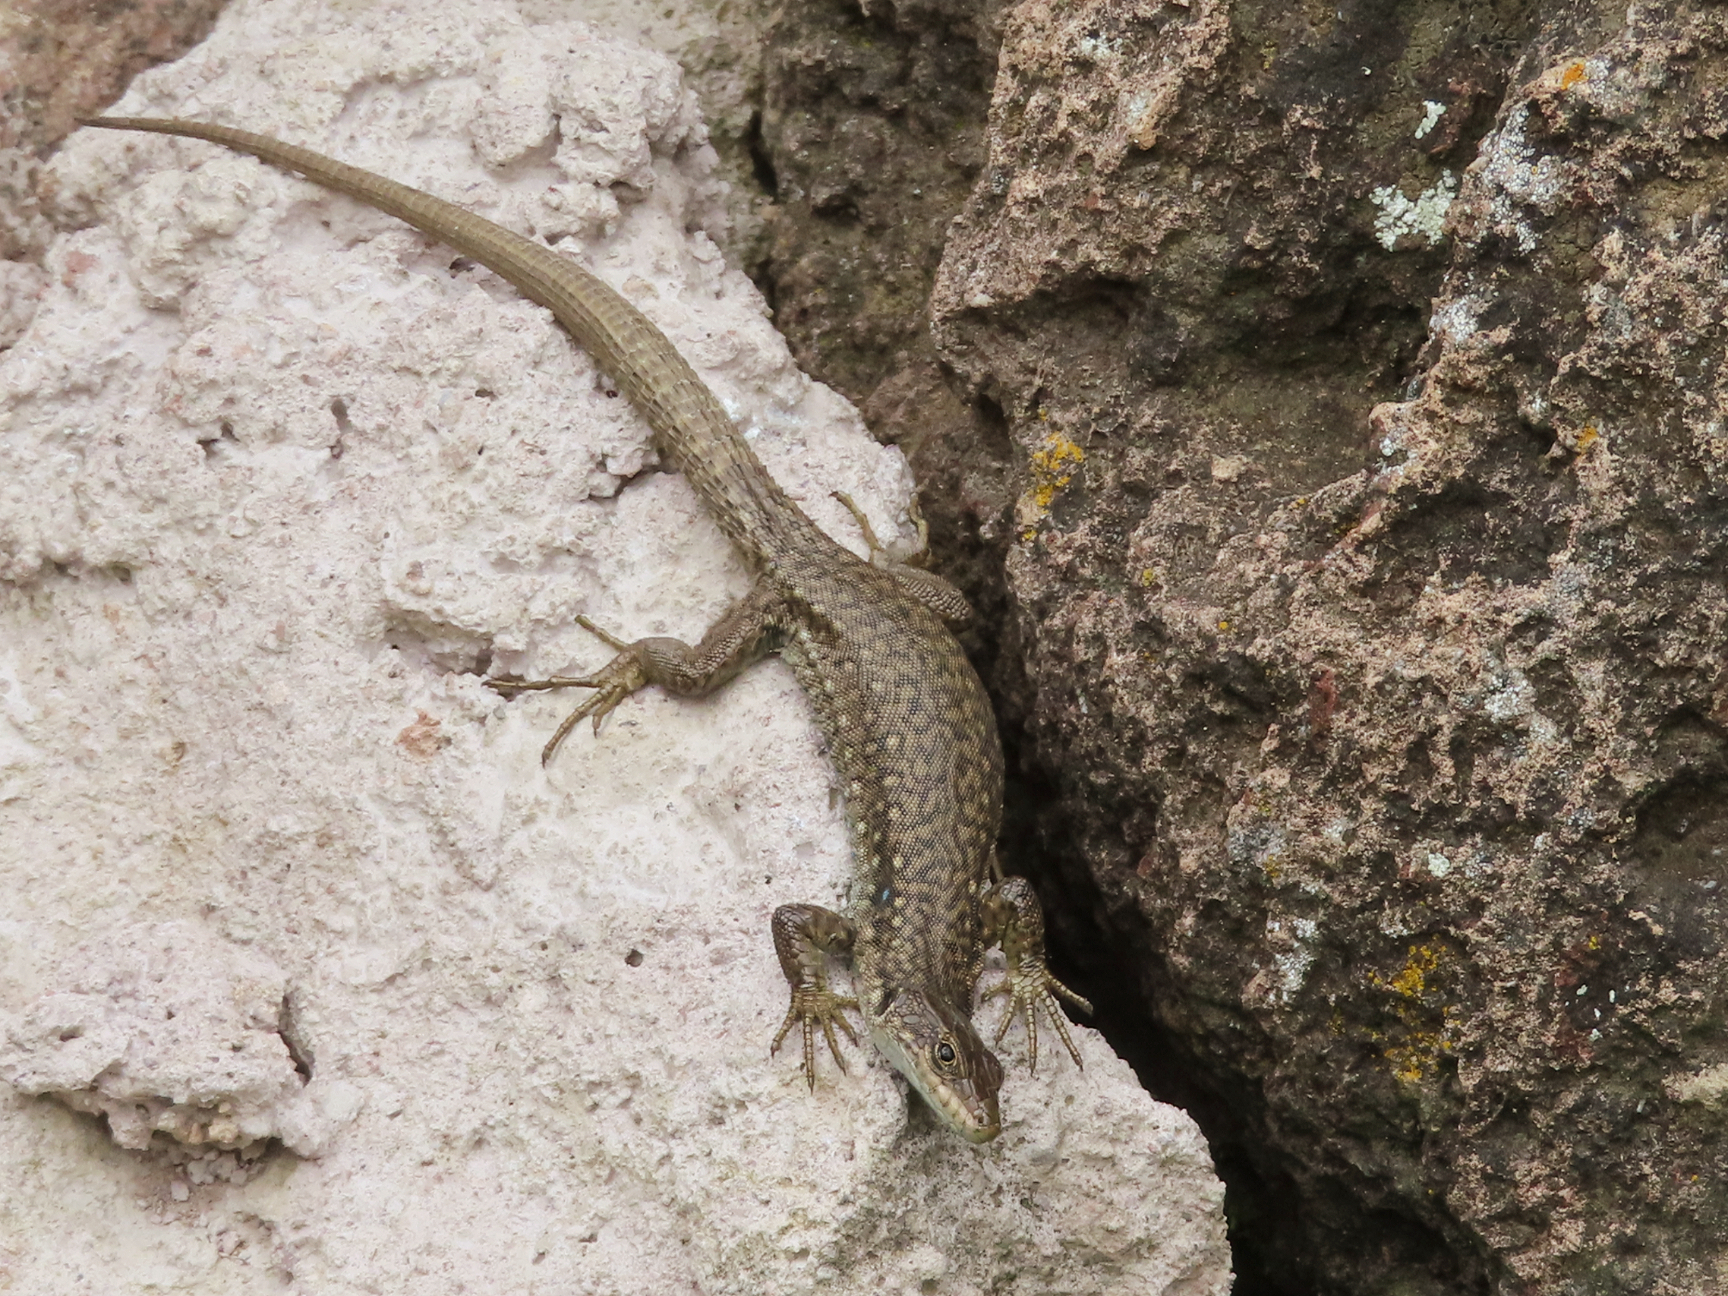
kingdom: Animalia
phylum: Chordata
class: Squamata
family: Lacertidae
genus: Darevskia
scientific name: Darevskia
